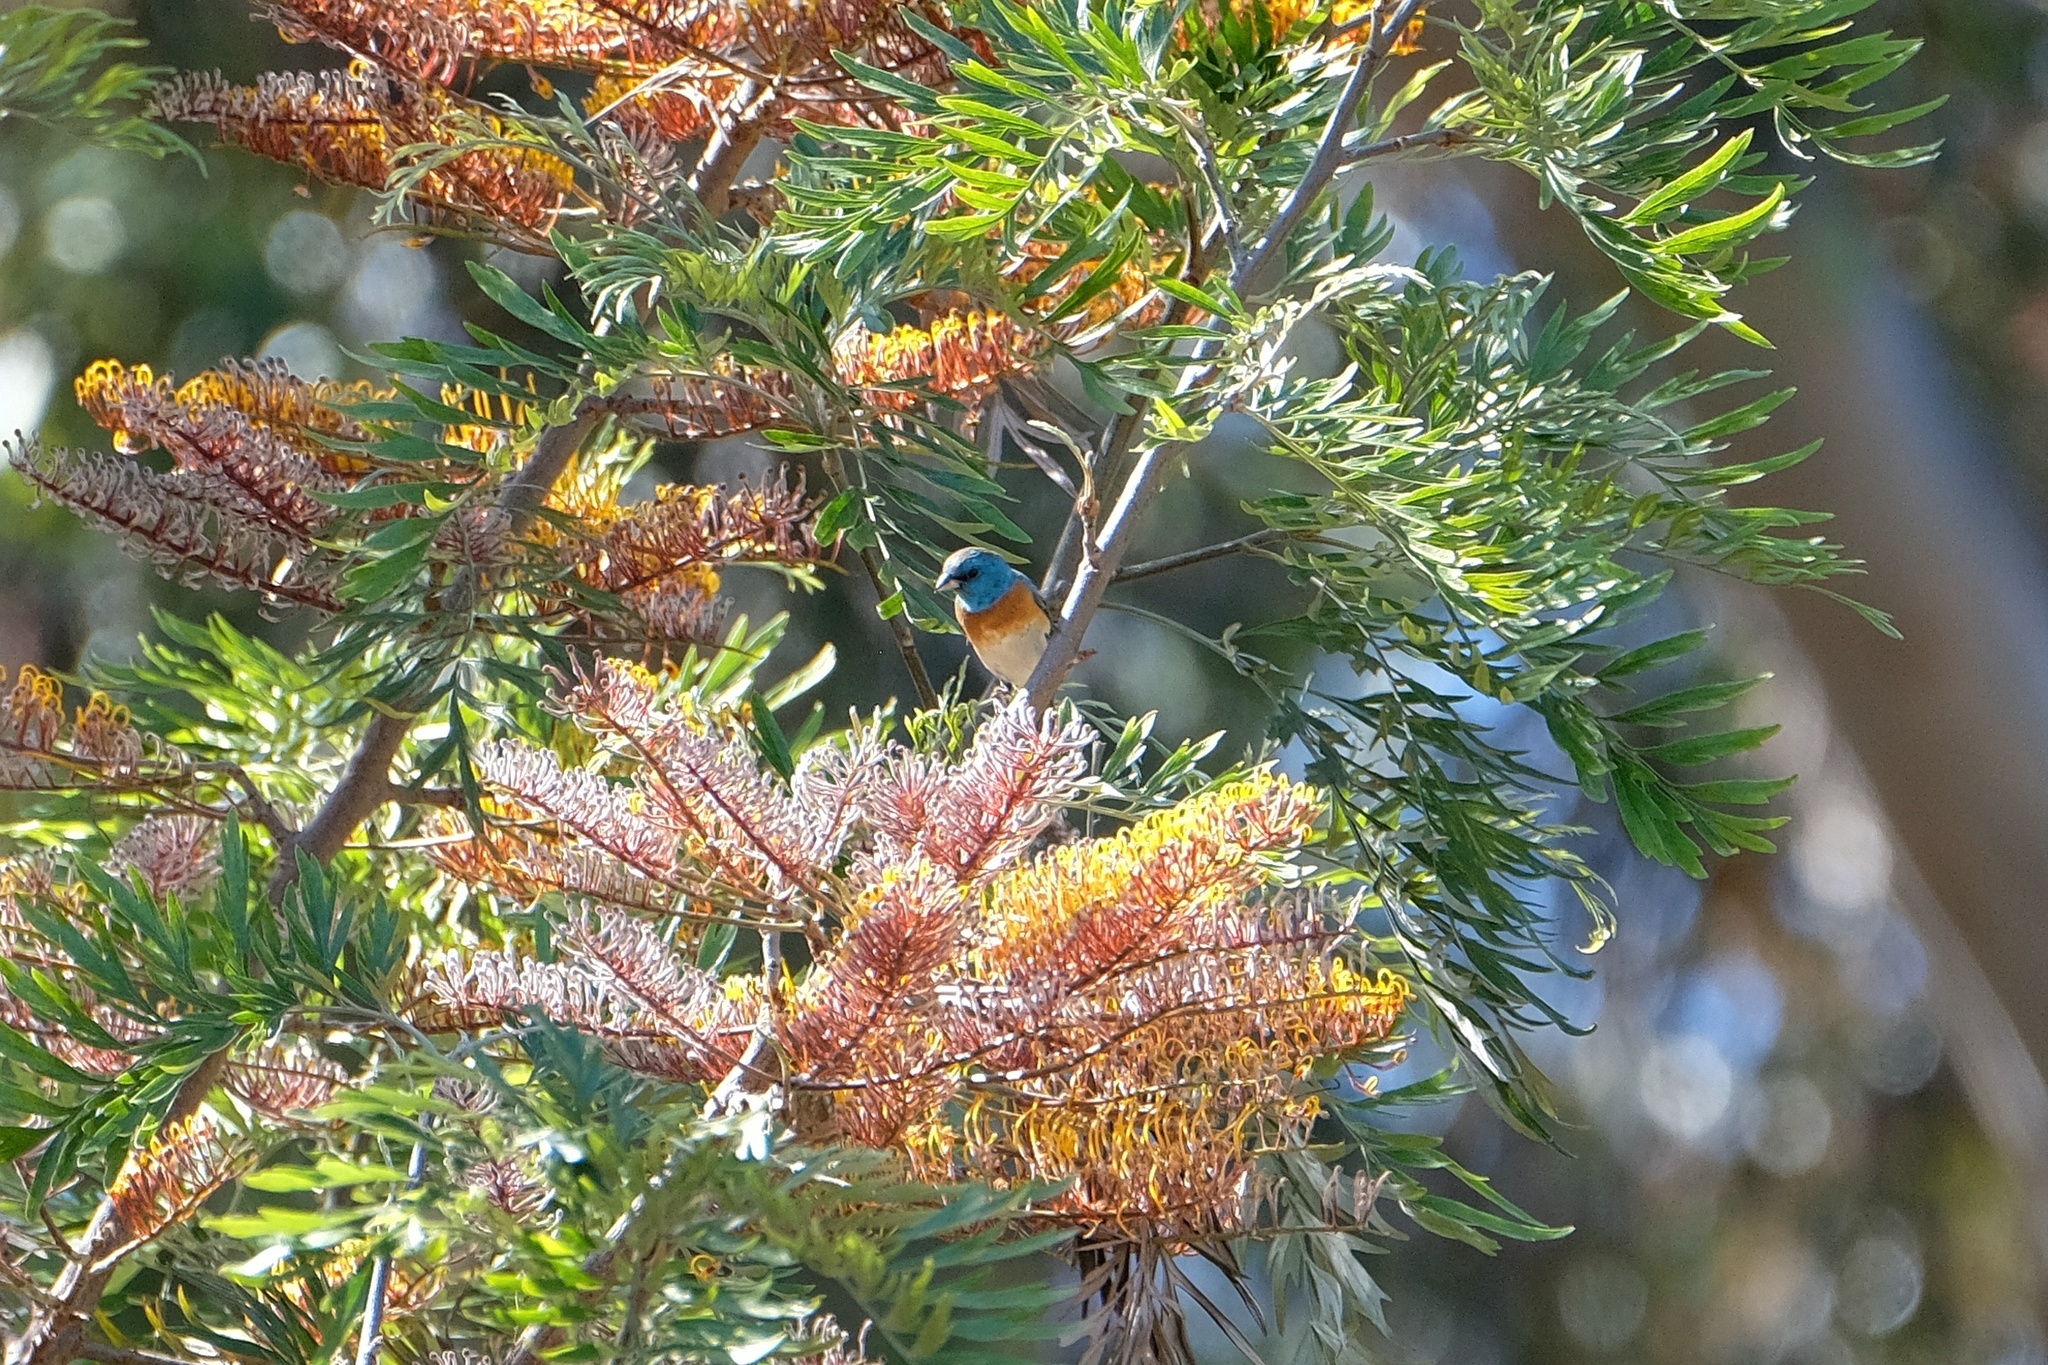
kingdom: Animalia
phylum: Chordata
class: Aves
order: Passeriformes
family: Cardinalidae
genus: Passerina
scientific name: Passerina amoena
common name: Lazuli bunting
